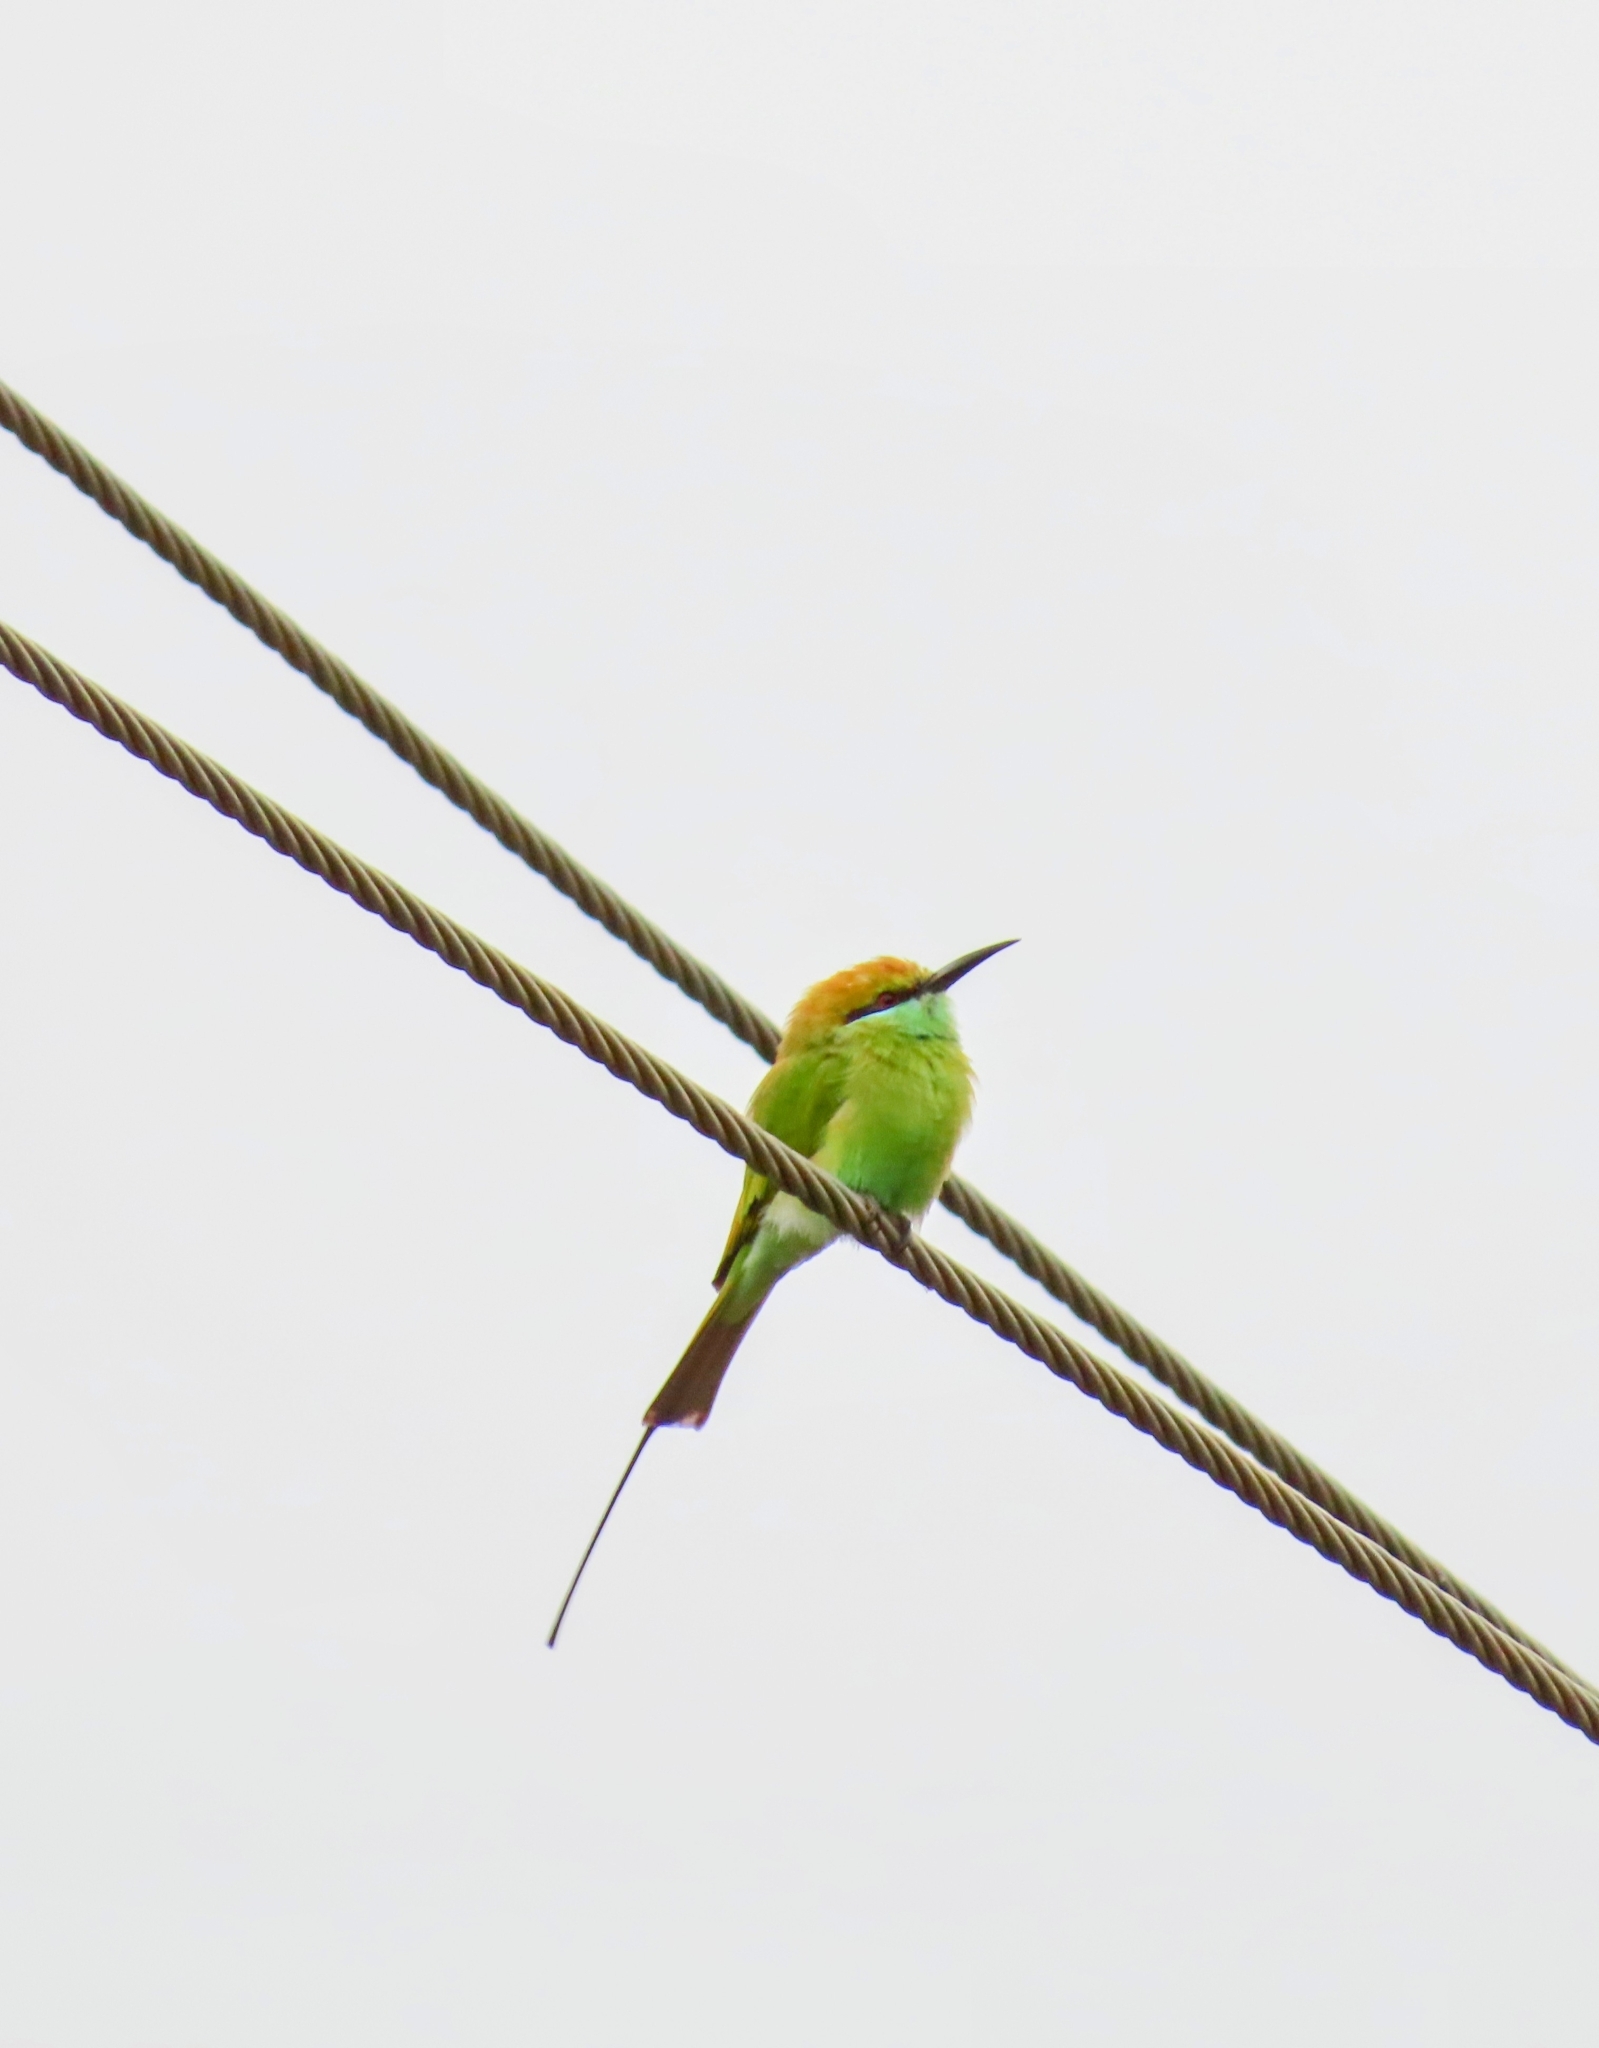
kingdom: Animalia
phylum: Chordata
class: Aves
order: Coraciiformes
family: Meropidae
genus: Merops
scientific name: Merops orientalis
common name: Green bee-eater
